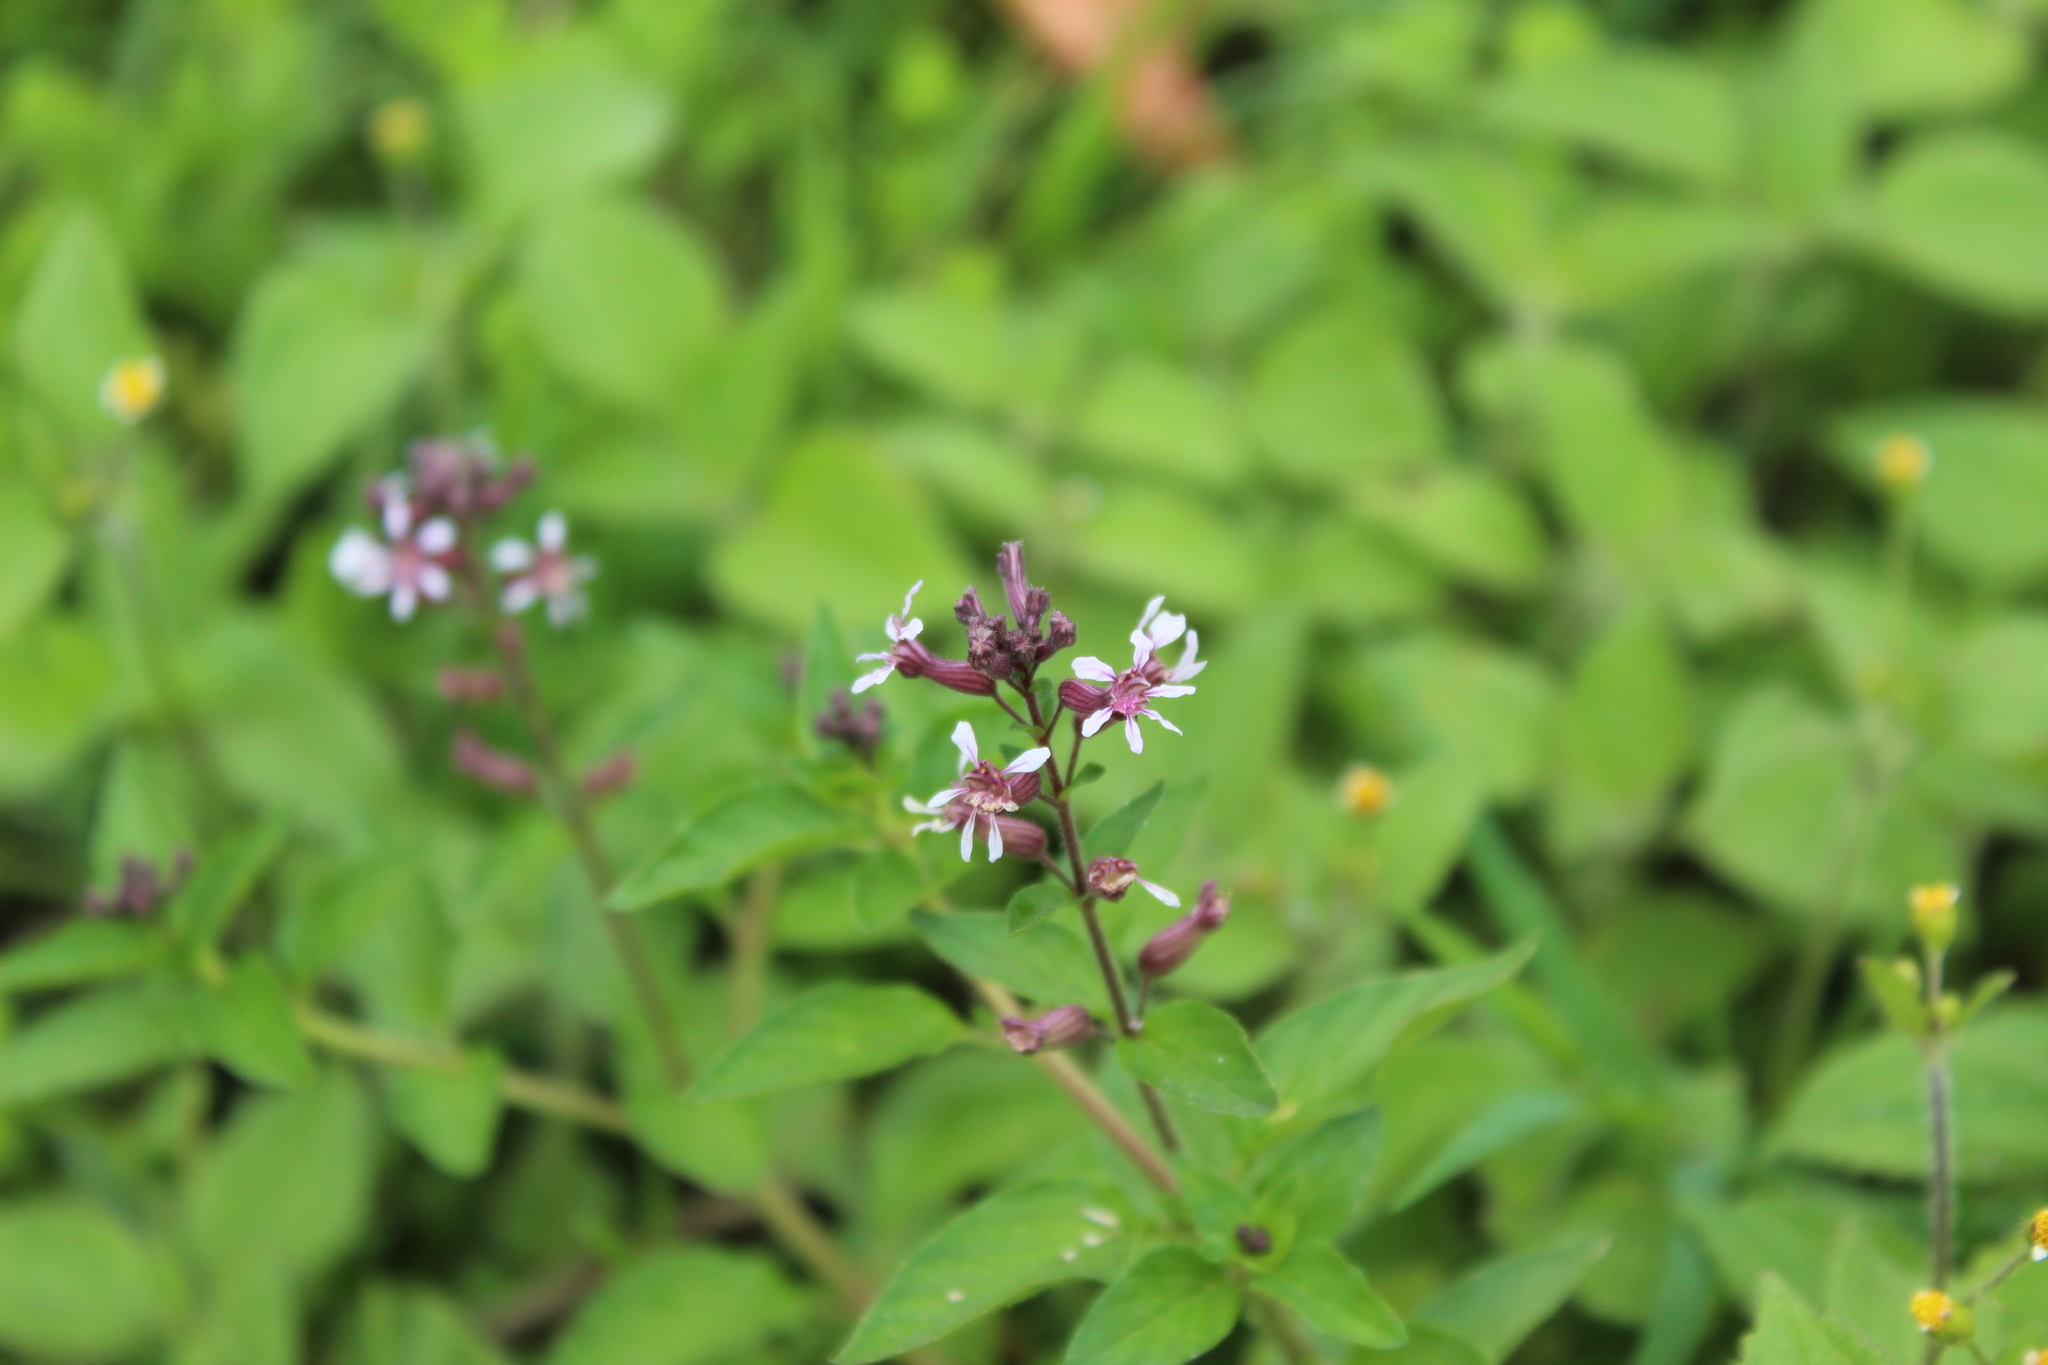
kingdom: Plantae
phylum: Tracheophyta
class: Magnoliopsida
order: Myrtales
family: Lythraceae
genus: Cuphea
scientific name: Cuphea racemosa
